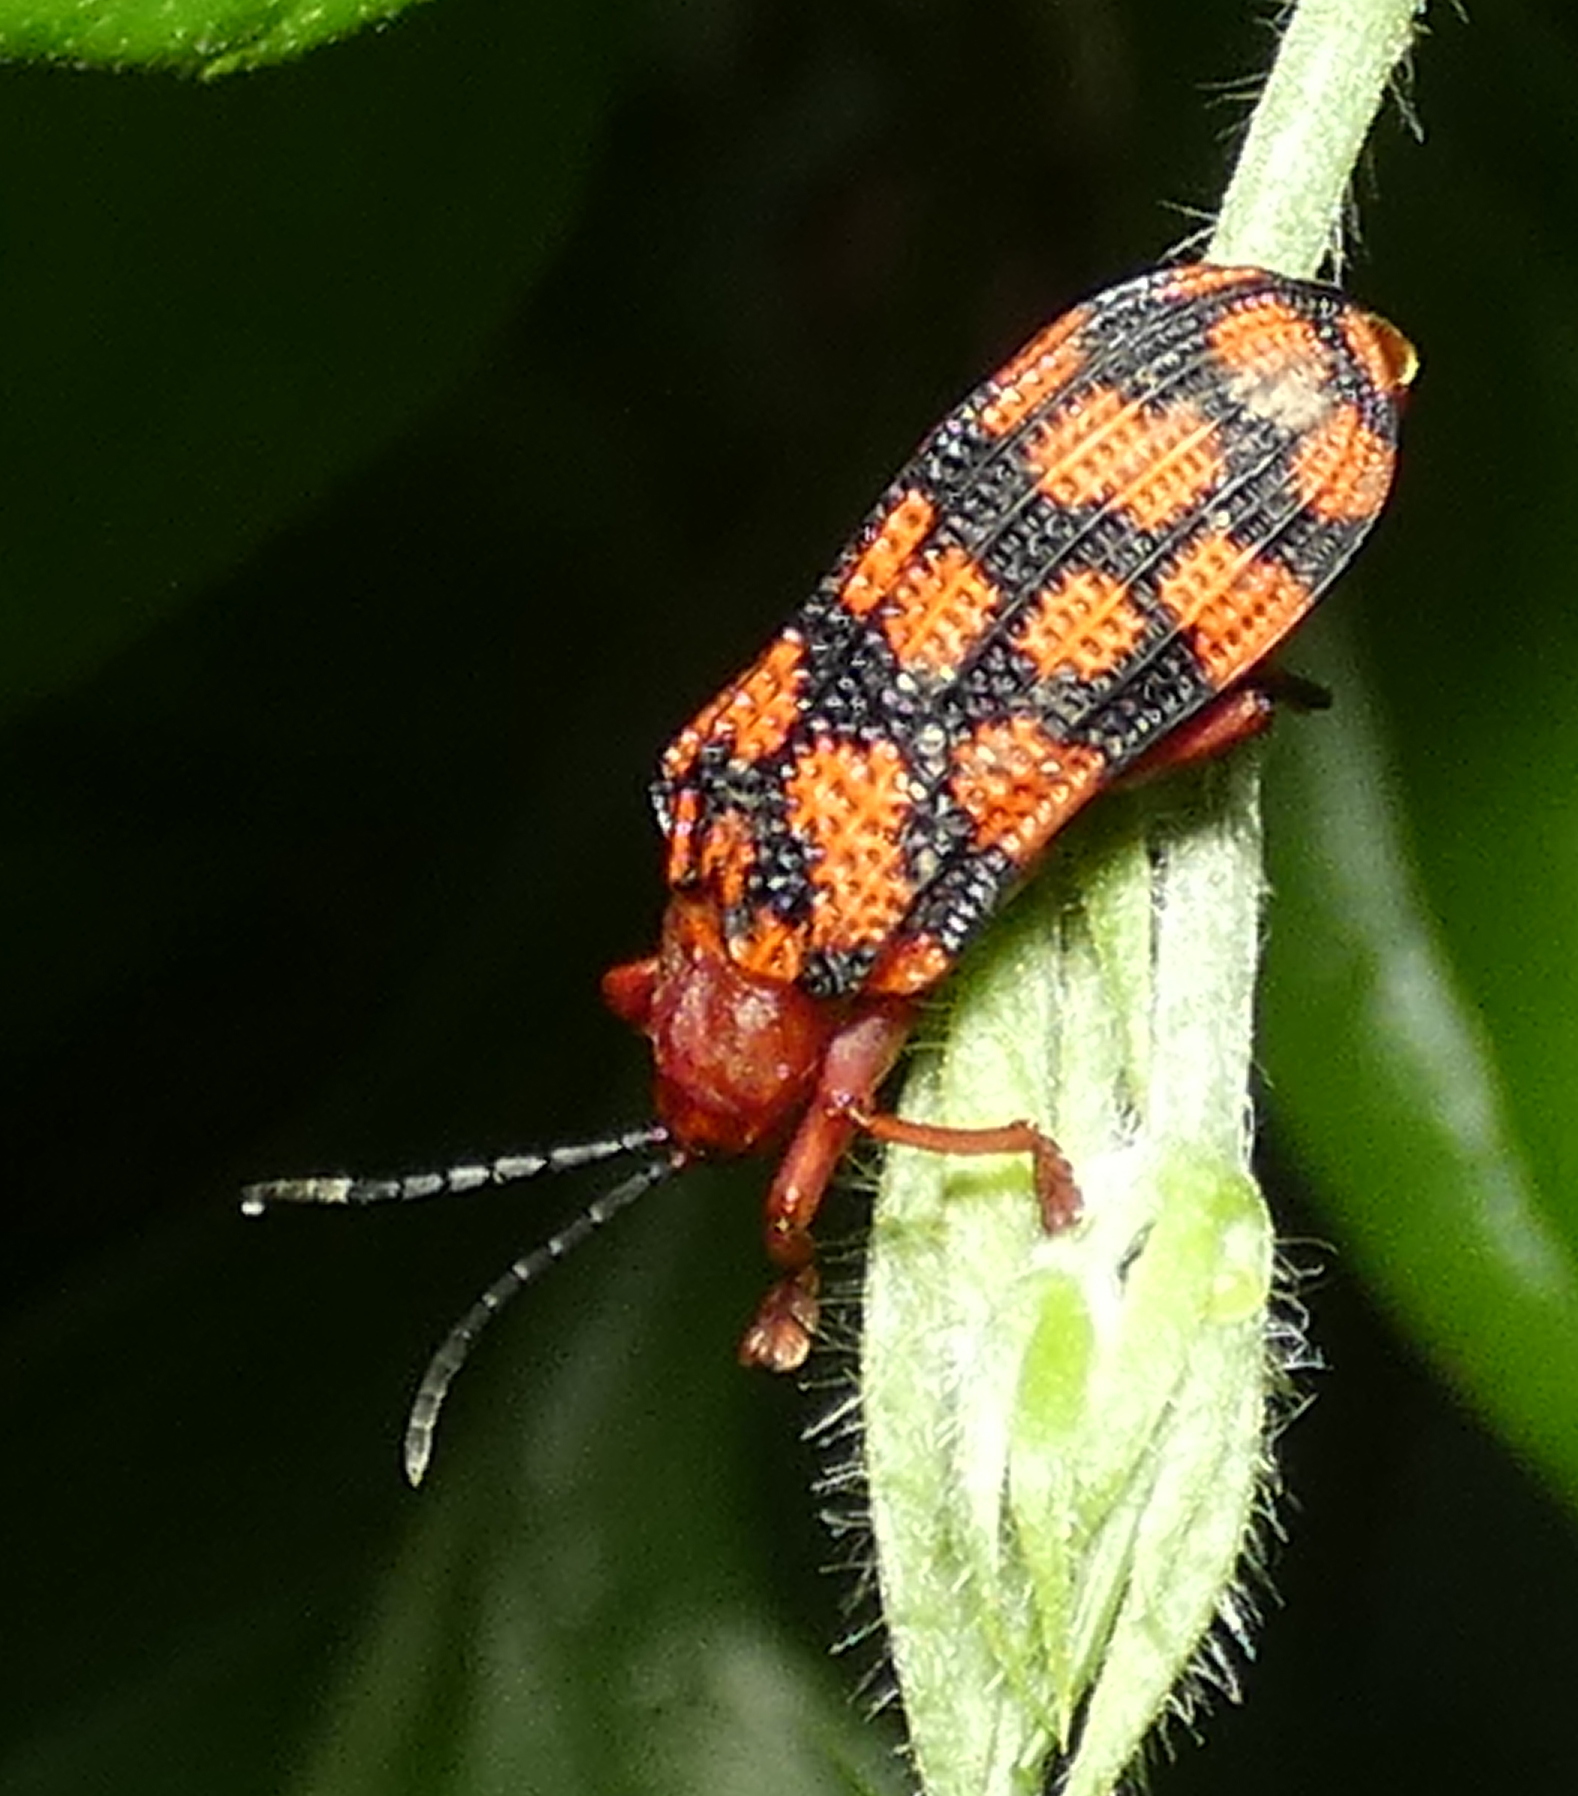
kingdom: Animalia
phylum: Arthropoda
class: Insecta
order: Coleoptera
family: Chrysomelidae
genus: Sceloenopla
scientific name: Sceloenopla maculata
